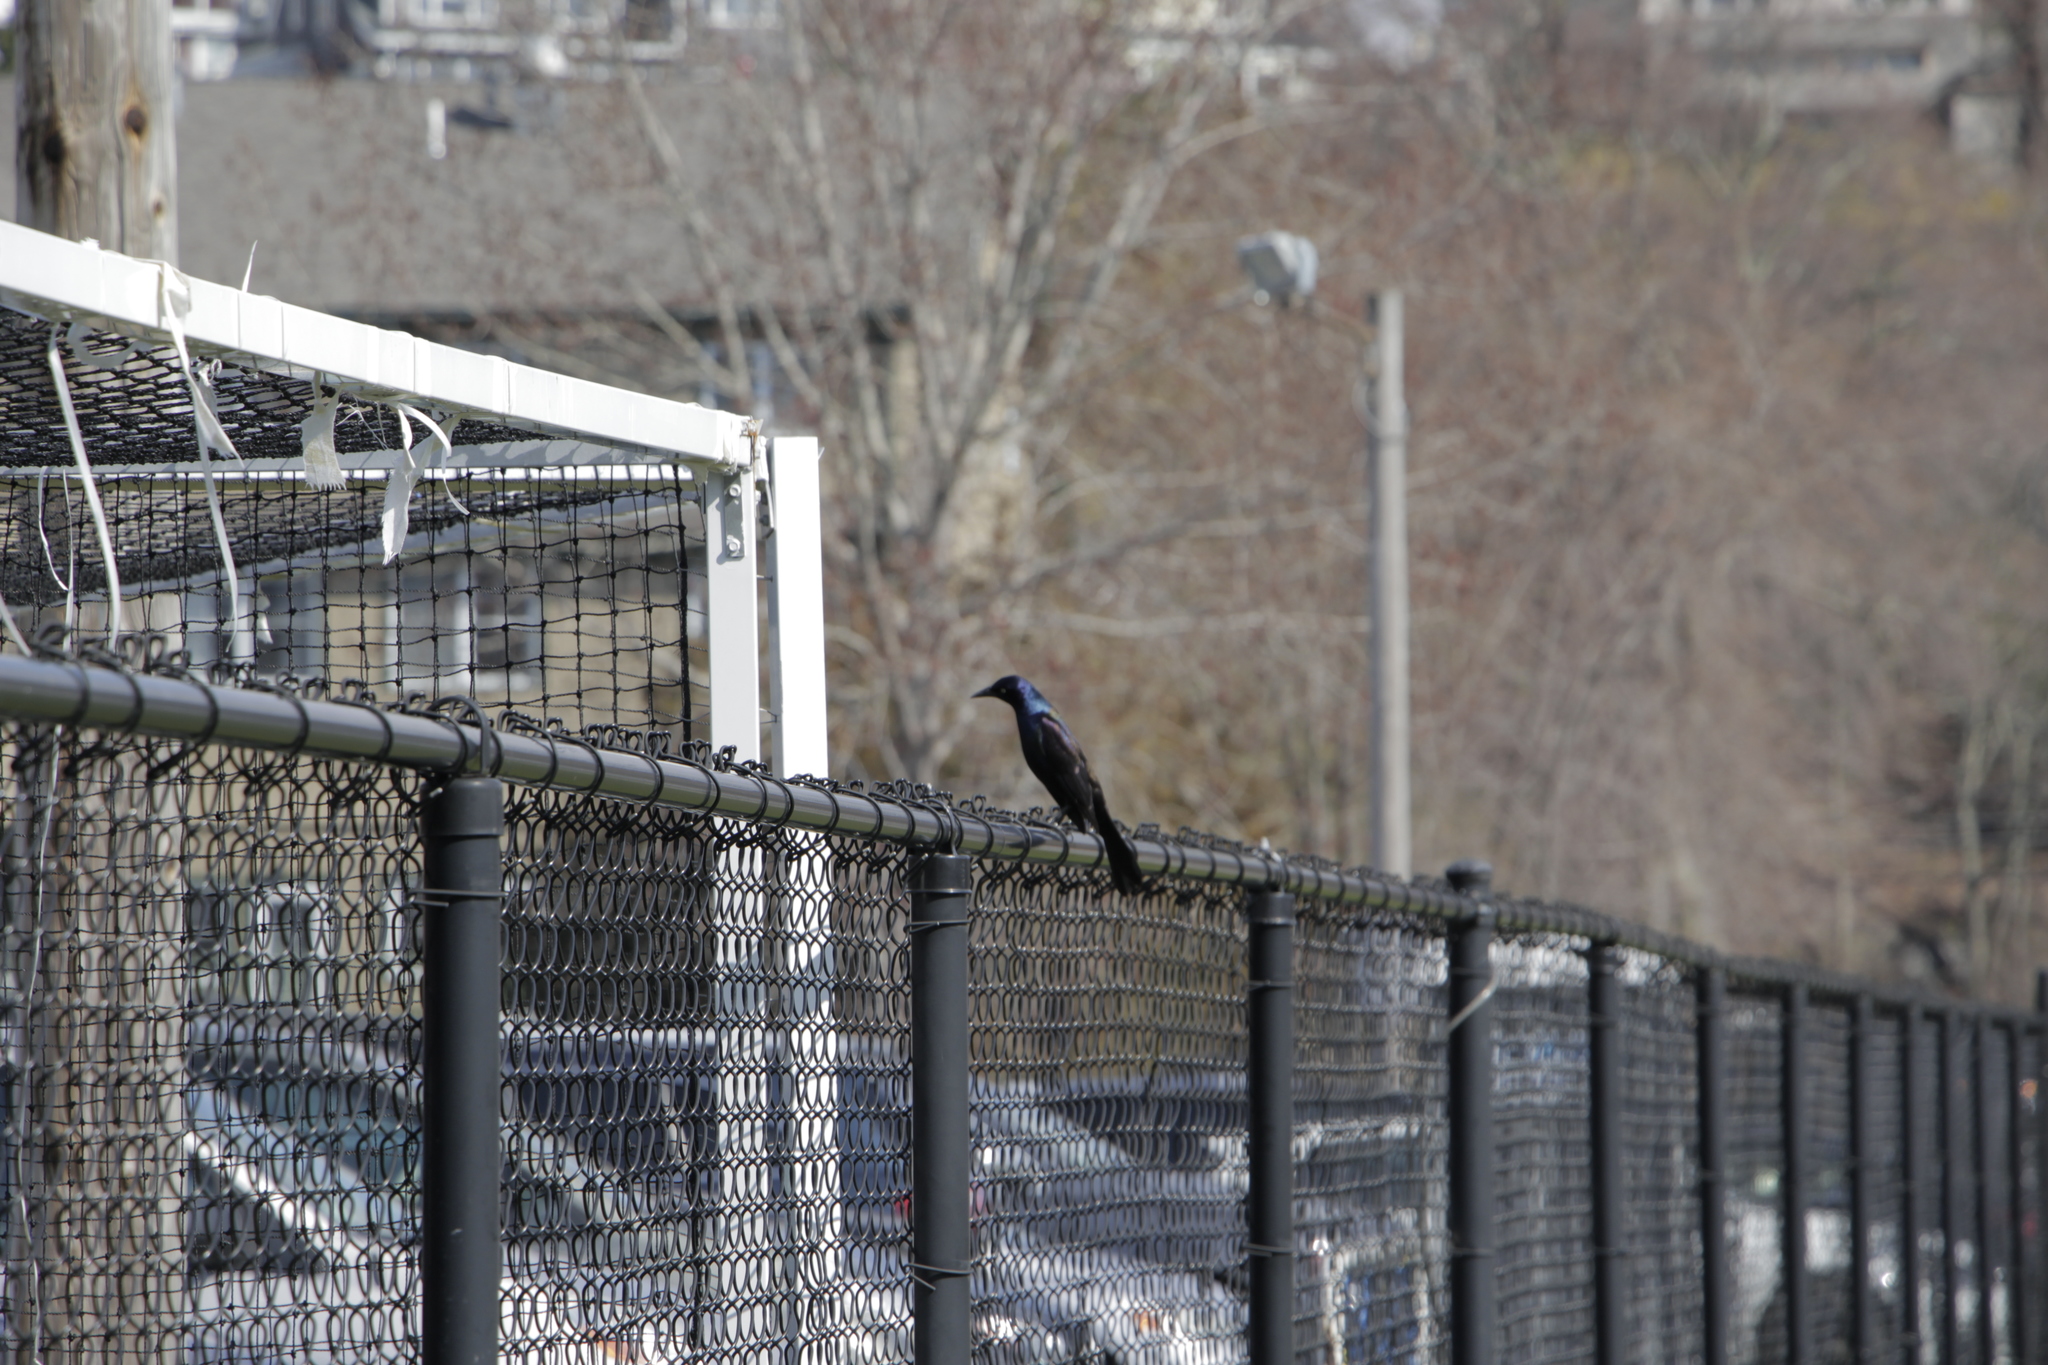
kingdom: Animalia
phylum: Chordata
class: Aves
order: Passeriformes
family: Icteridae
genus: Quiscalus
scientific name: Quiscalus quiscula
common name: Common grackle
